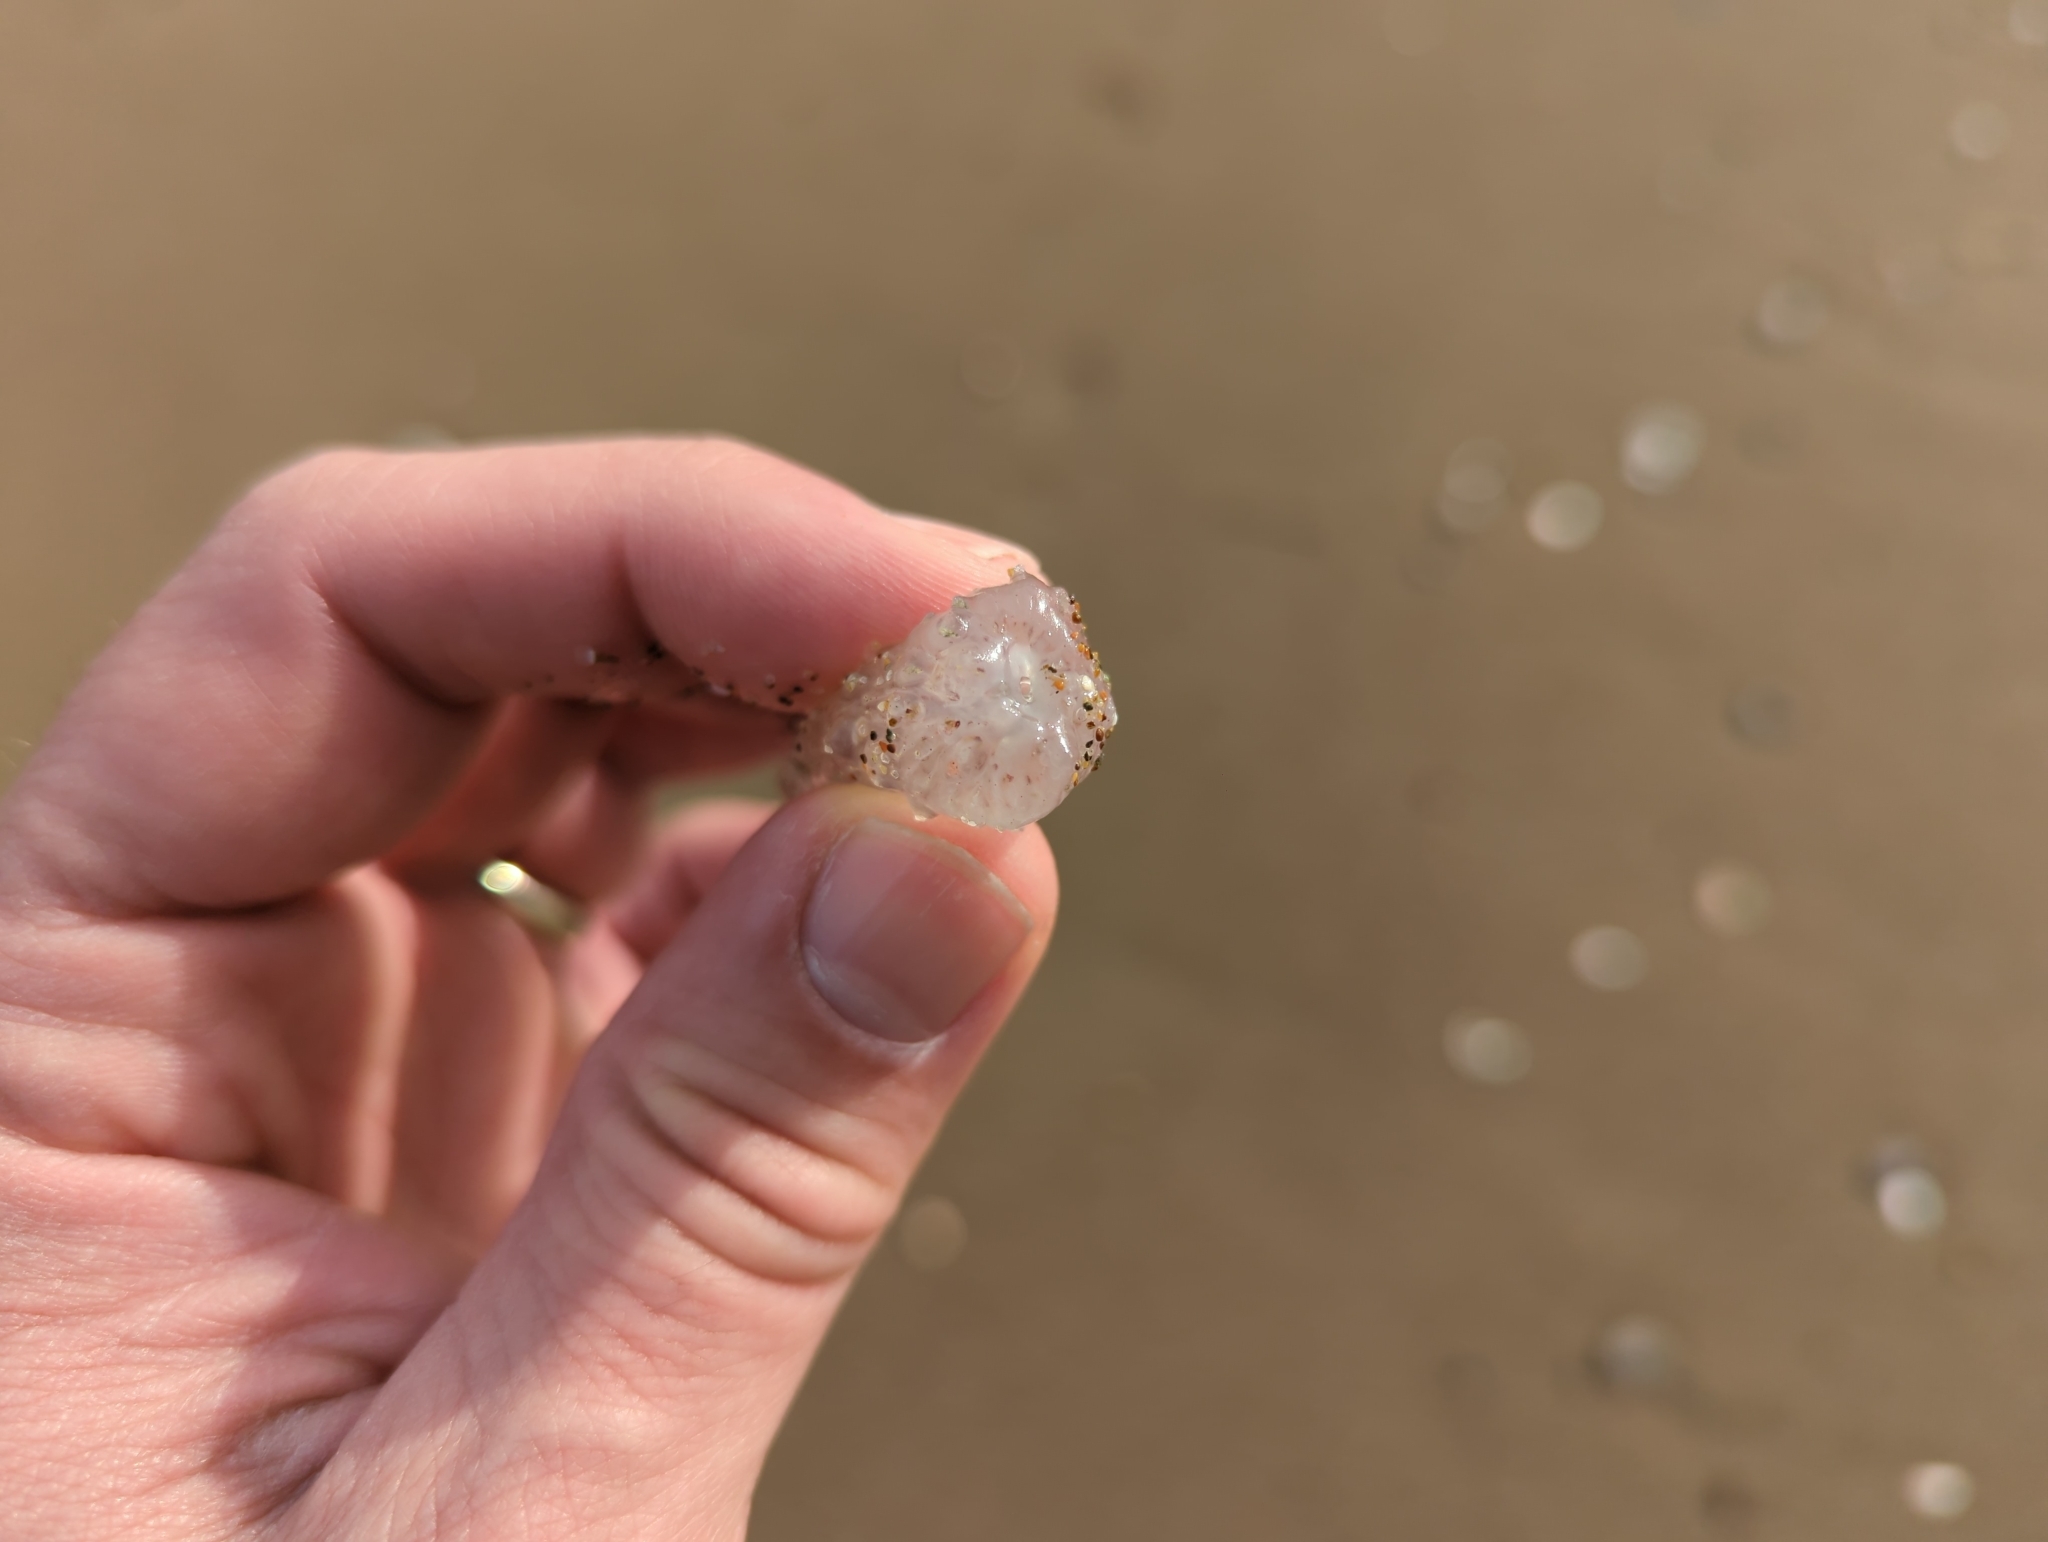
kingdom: Animalia
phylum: Chordata
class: Thaliacea
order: Pyrosomatida
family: Pyrosomatidae
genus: Pyrosoma
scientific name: Pyrosoma atlanticum
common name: Atlantic pyrosomes
